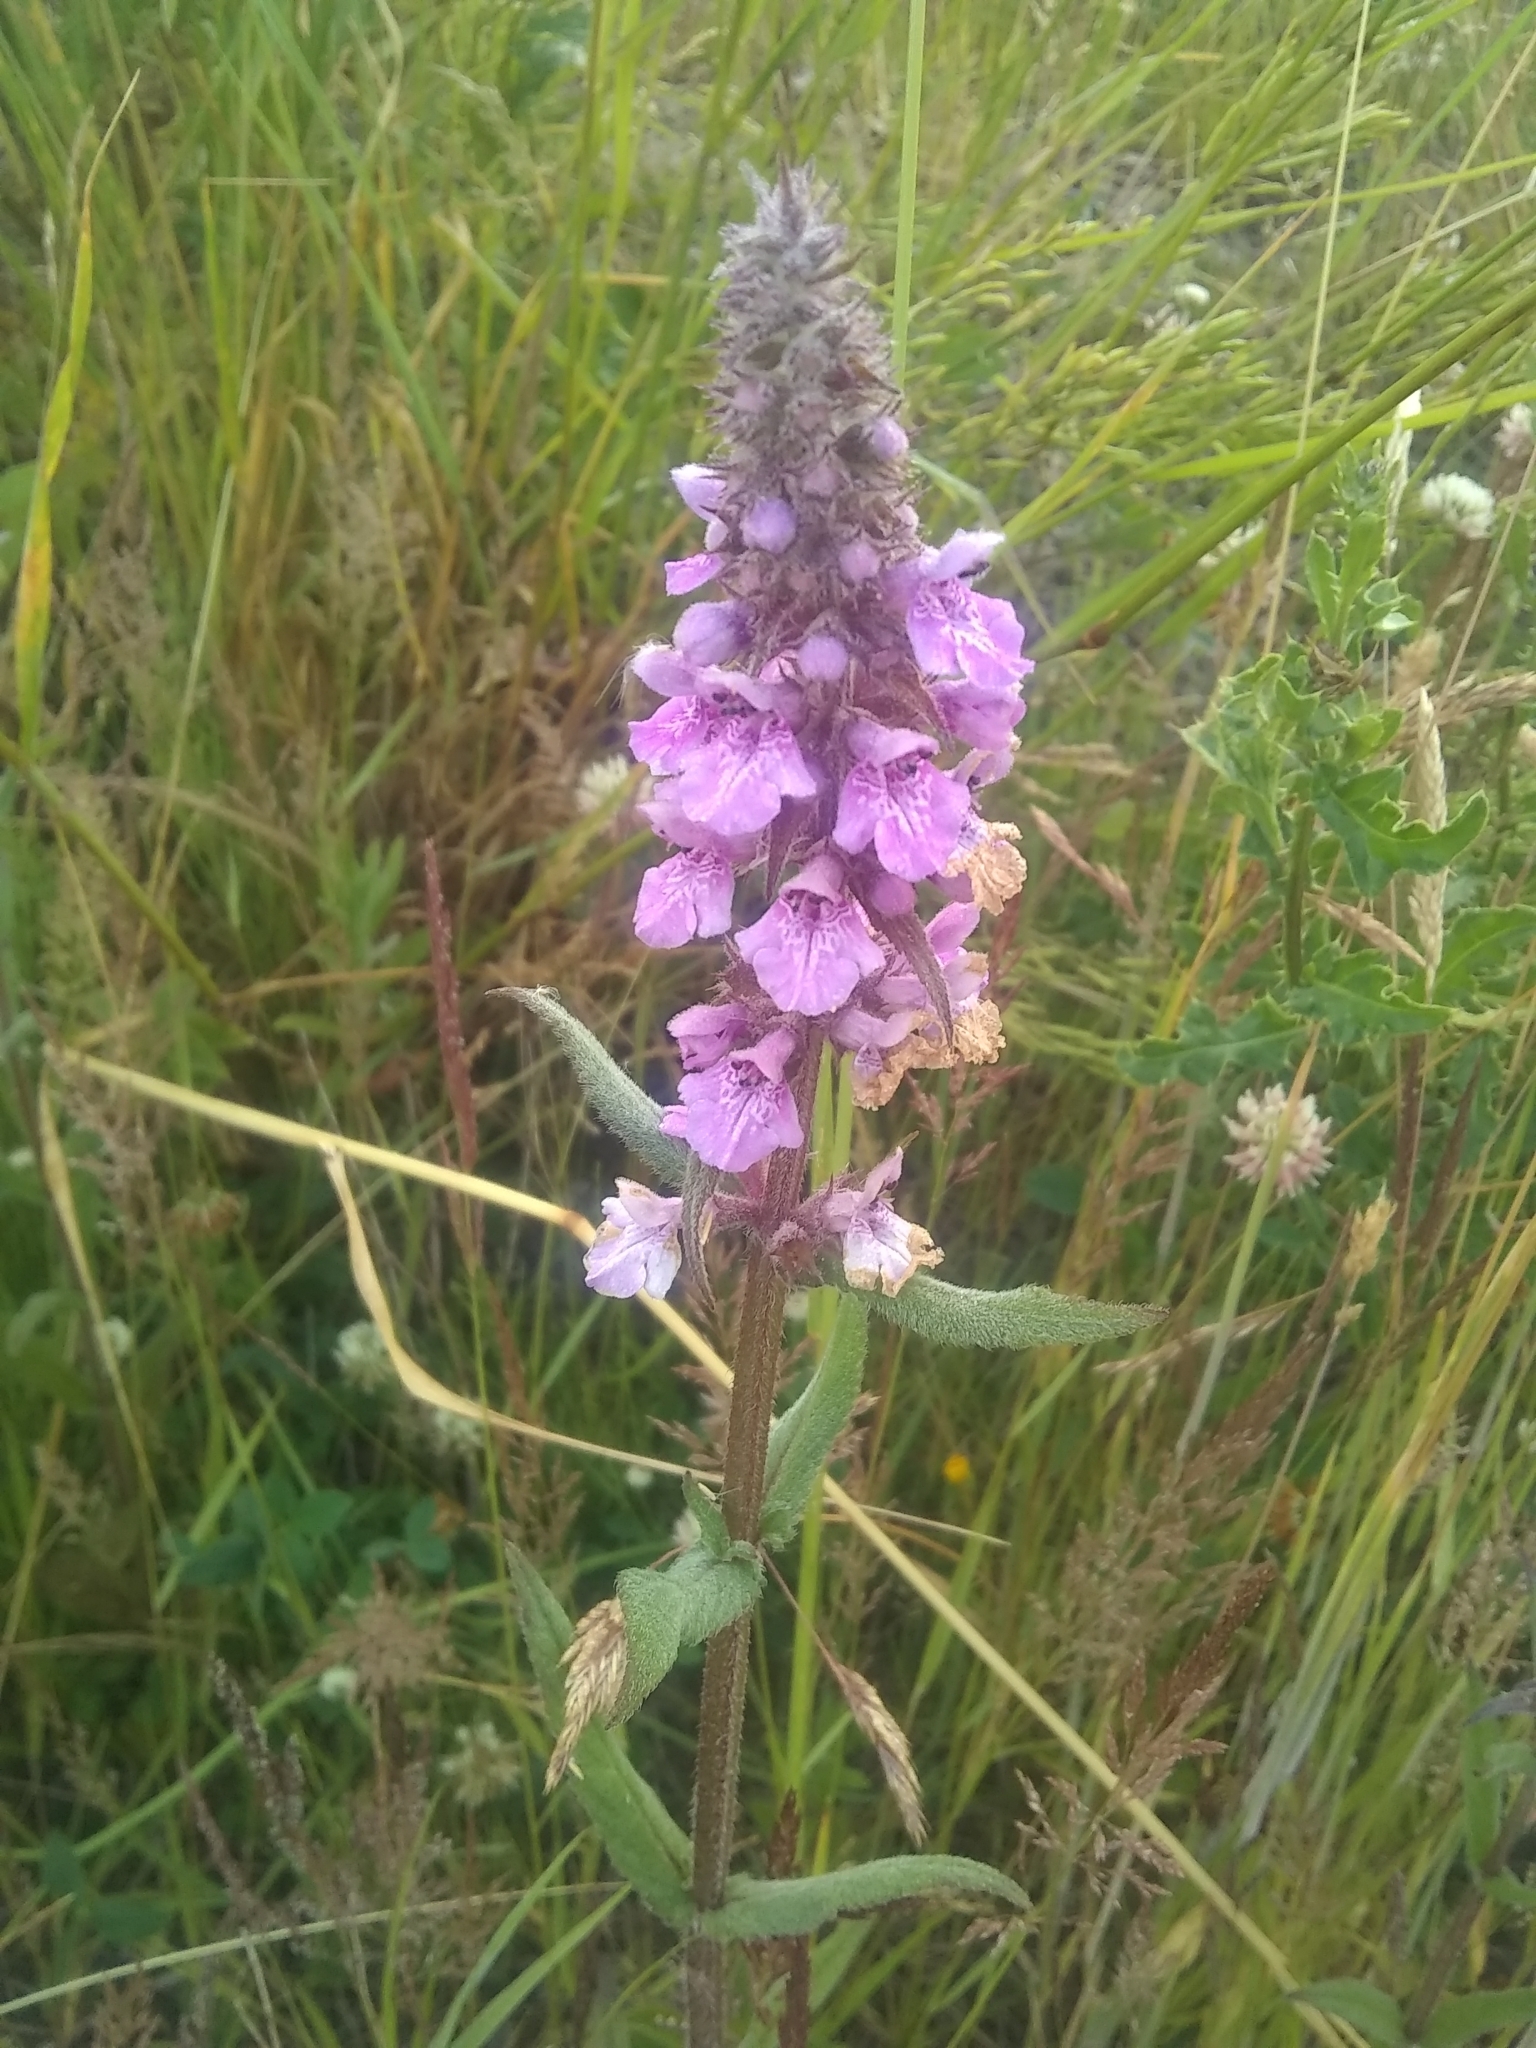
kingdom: Plantae
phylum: Tracheophyta
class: Magnoliopsida
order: Lamiales
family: Lamiaceae
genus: Stachys
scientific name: Stachys palustris
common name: Marsh woundwort
